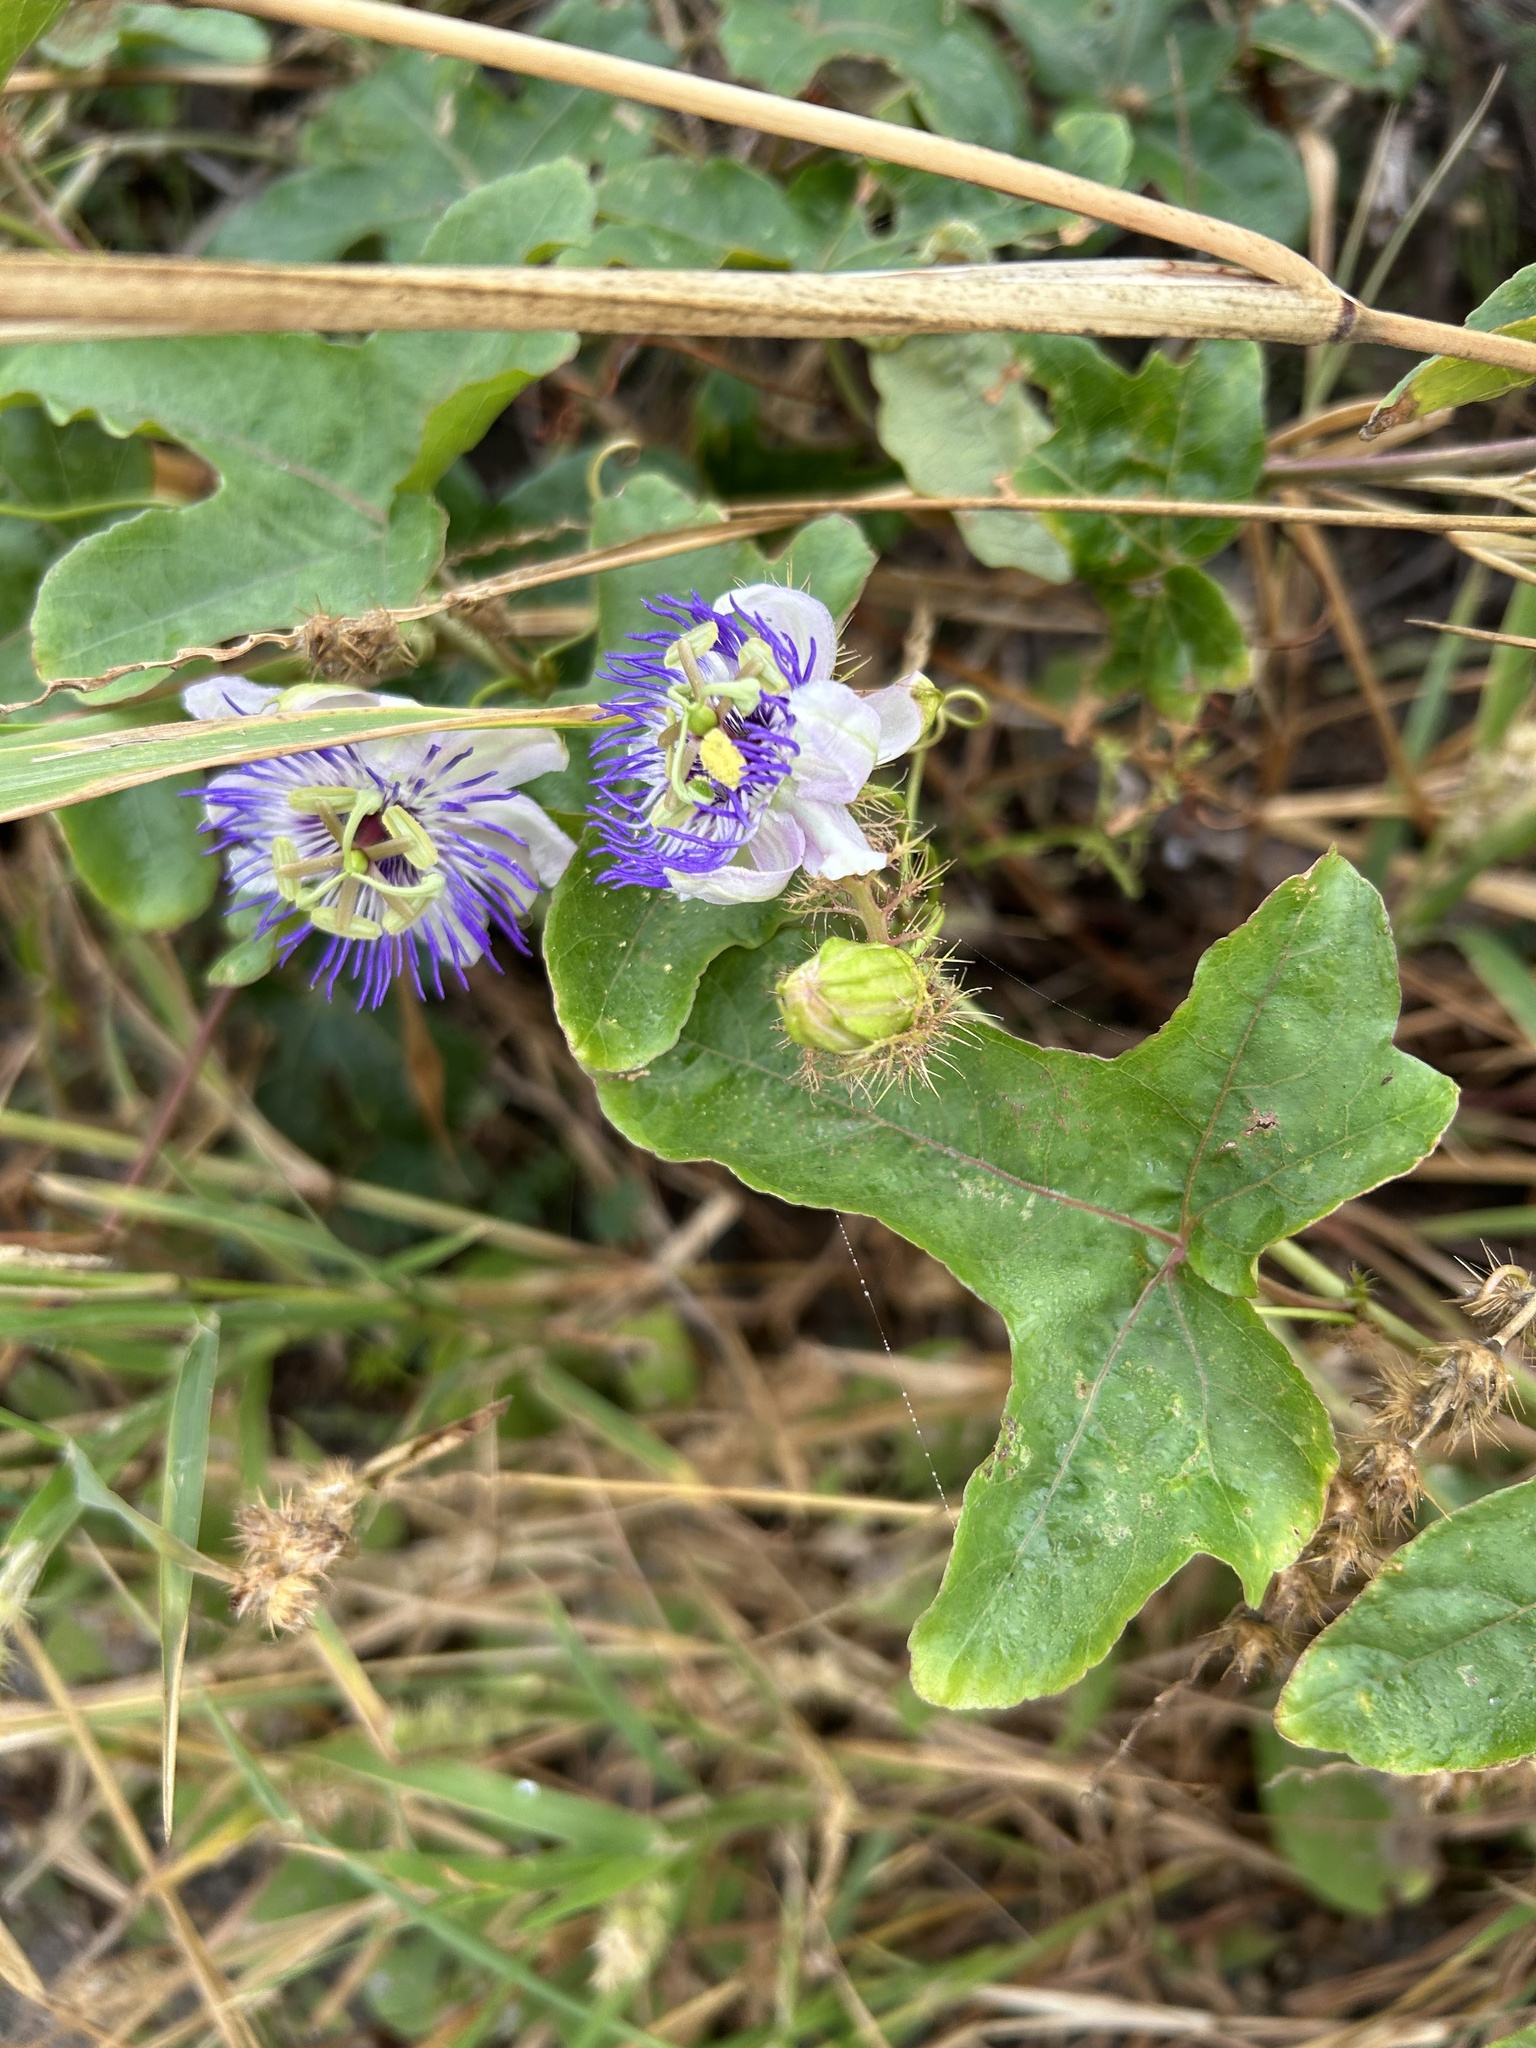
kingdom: Plantae
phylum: Tracheophyta
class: Magnoliopsida
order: Malpighiales
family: Passifloraceae
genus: Passiflora
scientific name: Passiflora foetida
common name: Fetid passionflower
